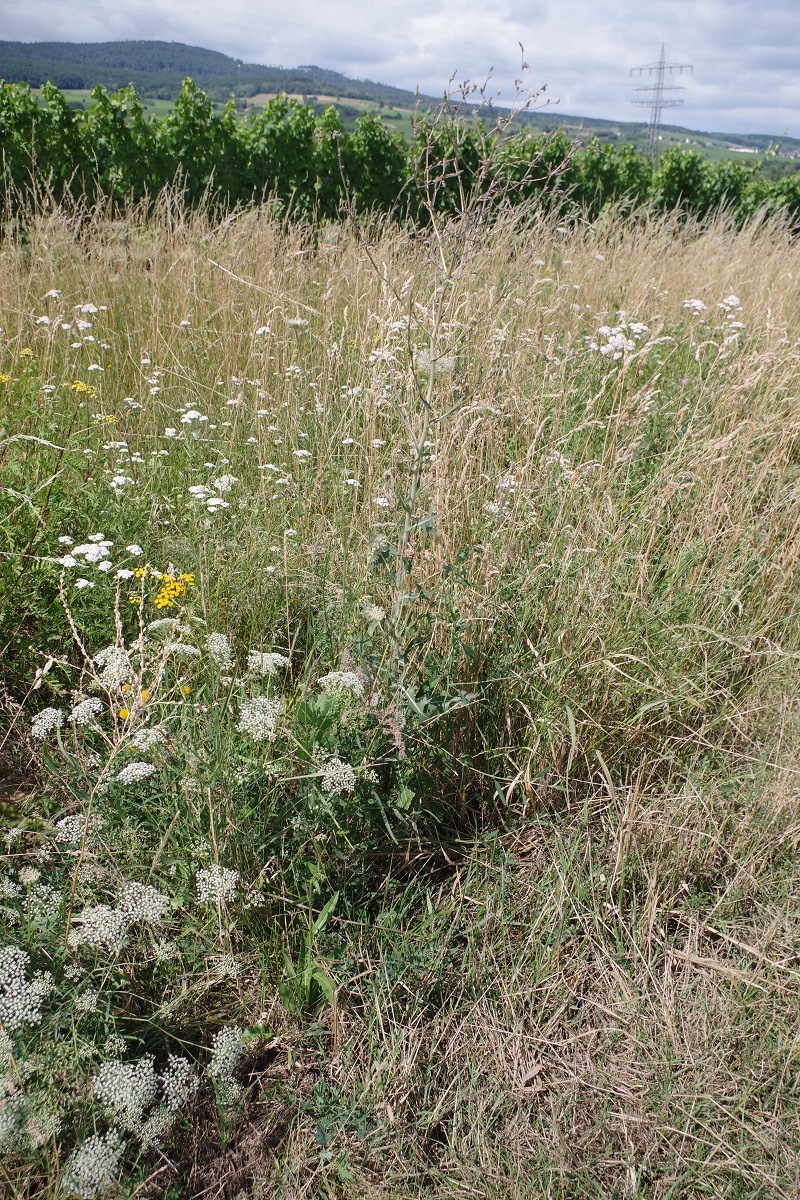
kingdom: Plantae
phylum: Tracheophyta
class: Magnoliopsida
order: Asterales
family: Asteraceae
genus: Lactuca
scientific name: Lactuca serriola
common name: Prickly lettuce
